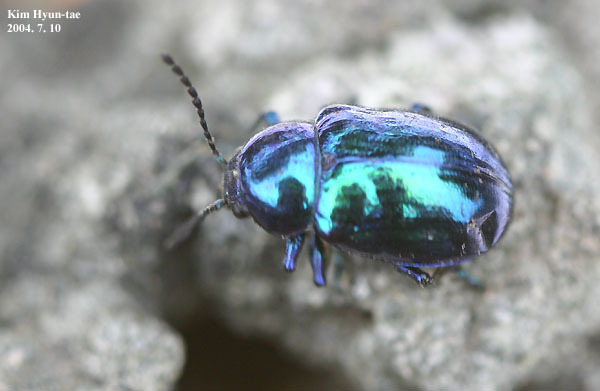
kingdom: Animalia
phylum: Arthropoda
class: Insecta
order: Coleoptera
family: Chrysomelidae
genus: Chrysochus
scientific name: Chrysochus chinensis
